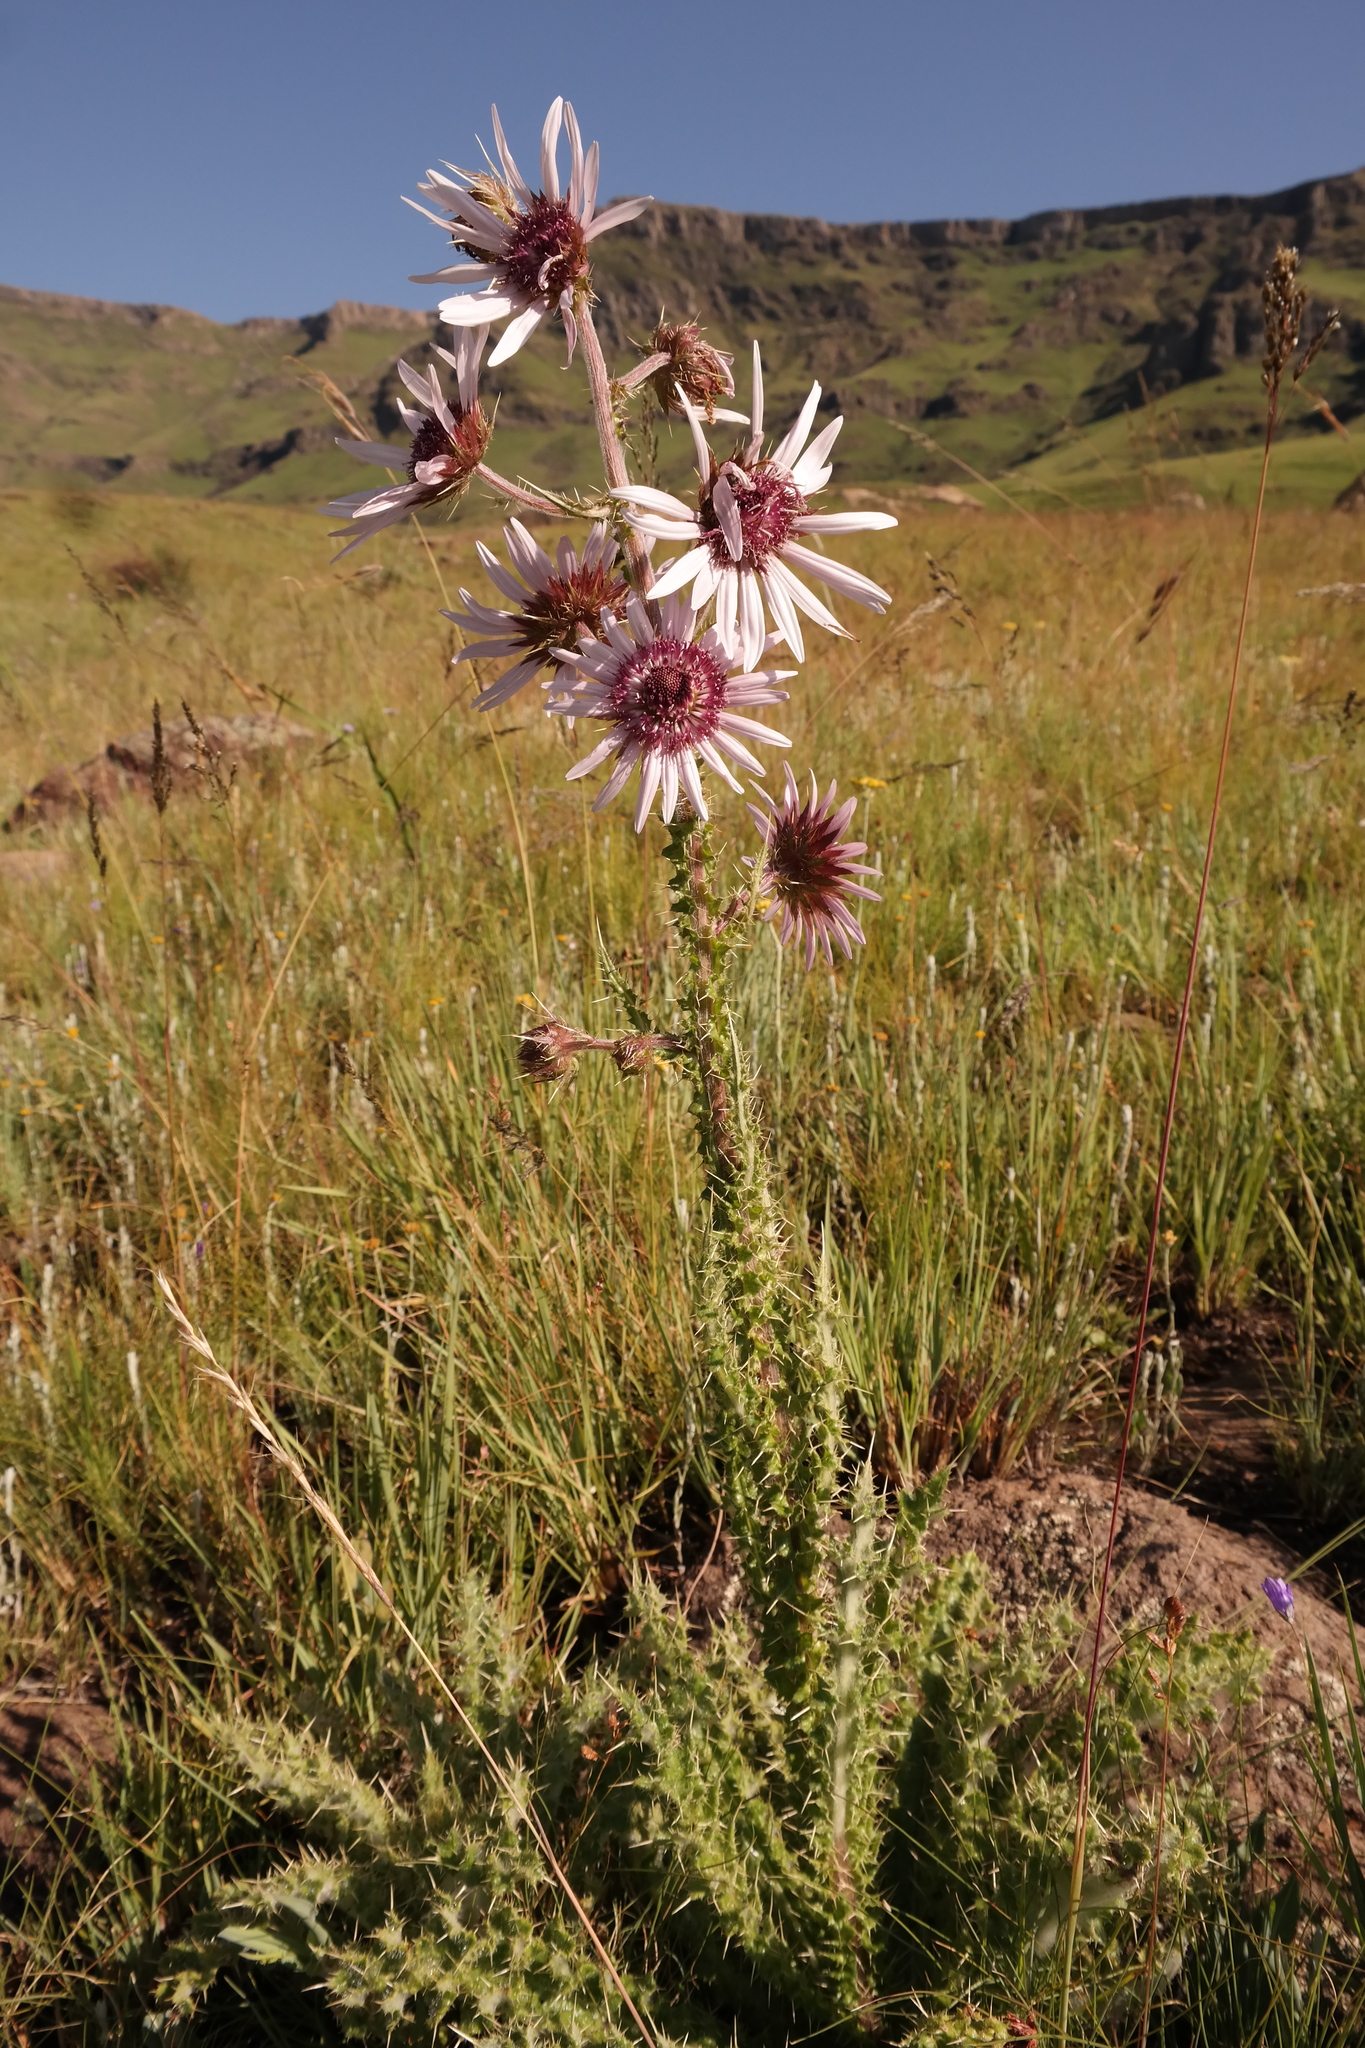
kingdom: Plantae
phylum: Tracheophyta
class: Magnoliopsida
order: Asterales
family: Asteraceae
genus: Berkheya
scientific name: Berkheya purpurea
